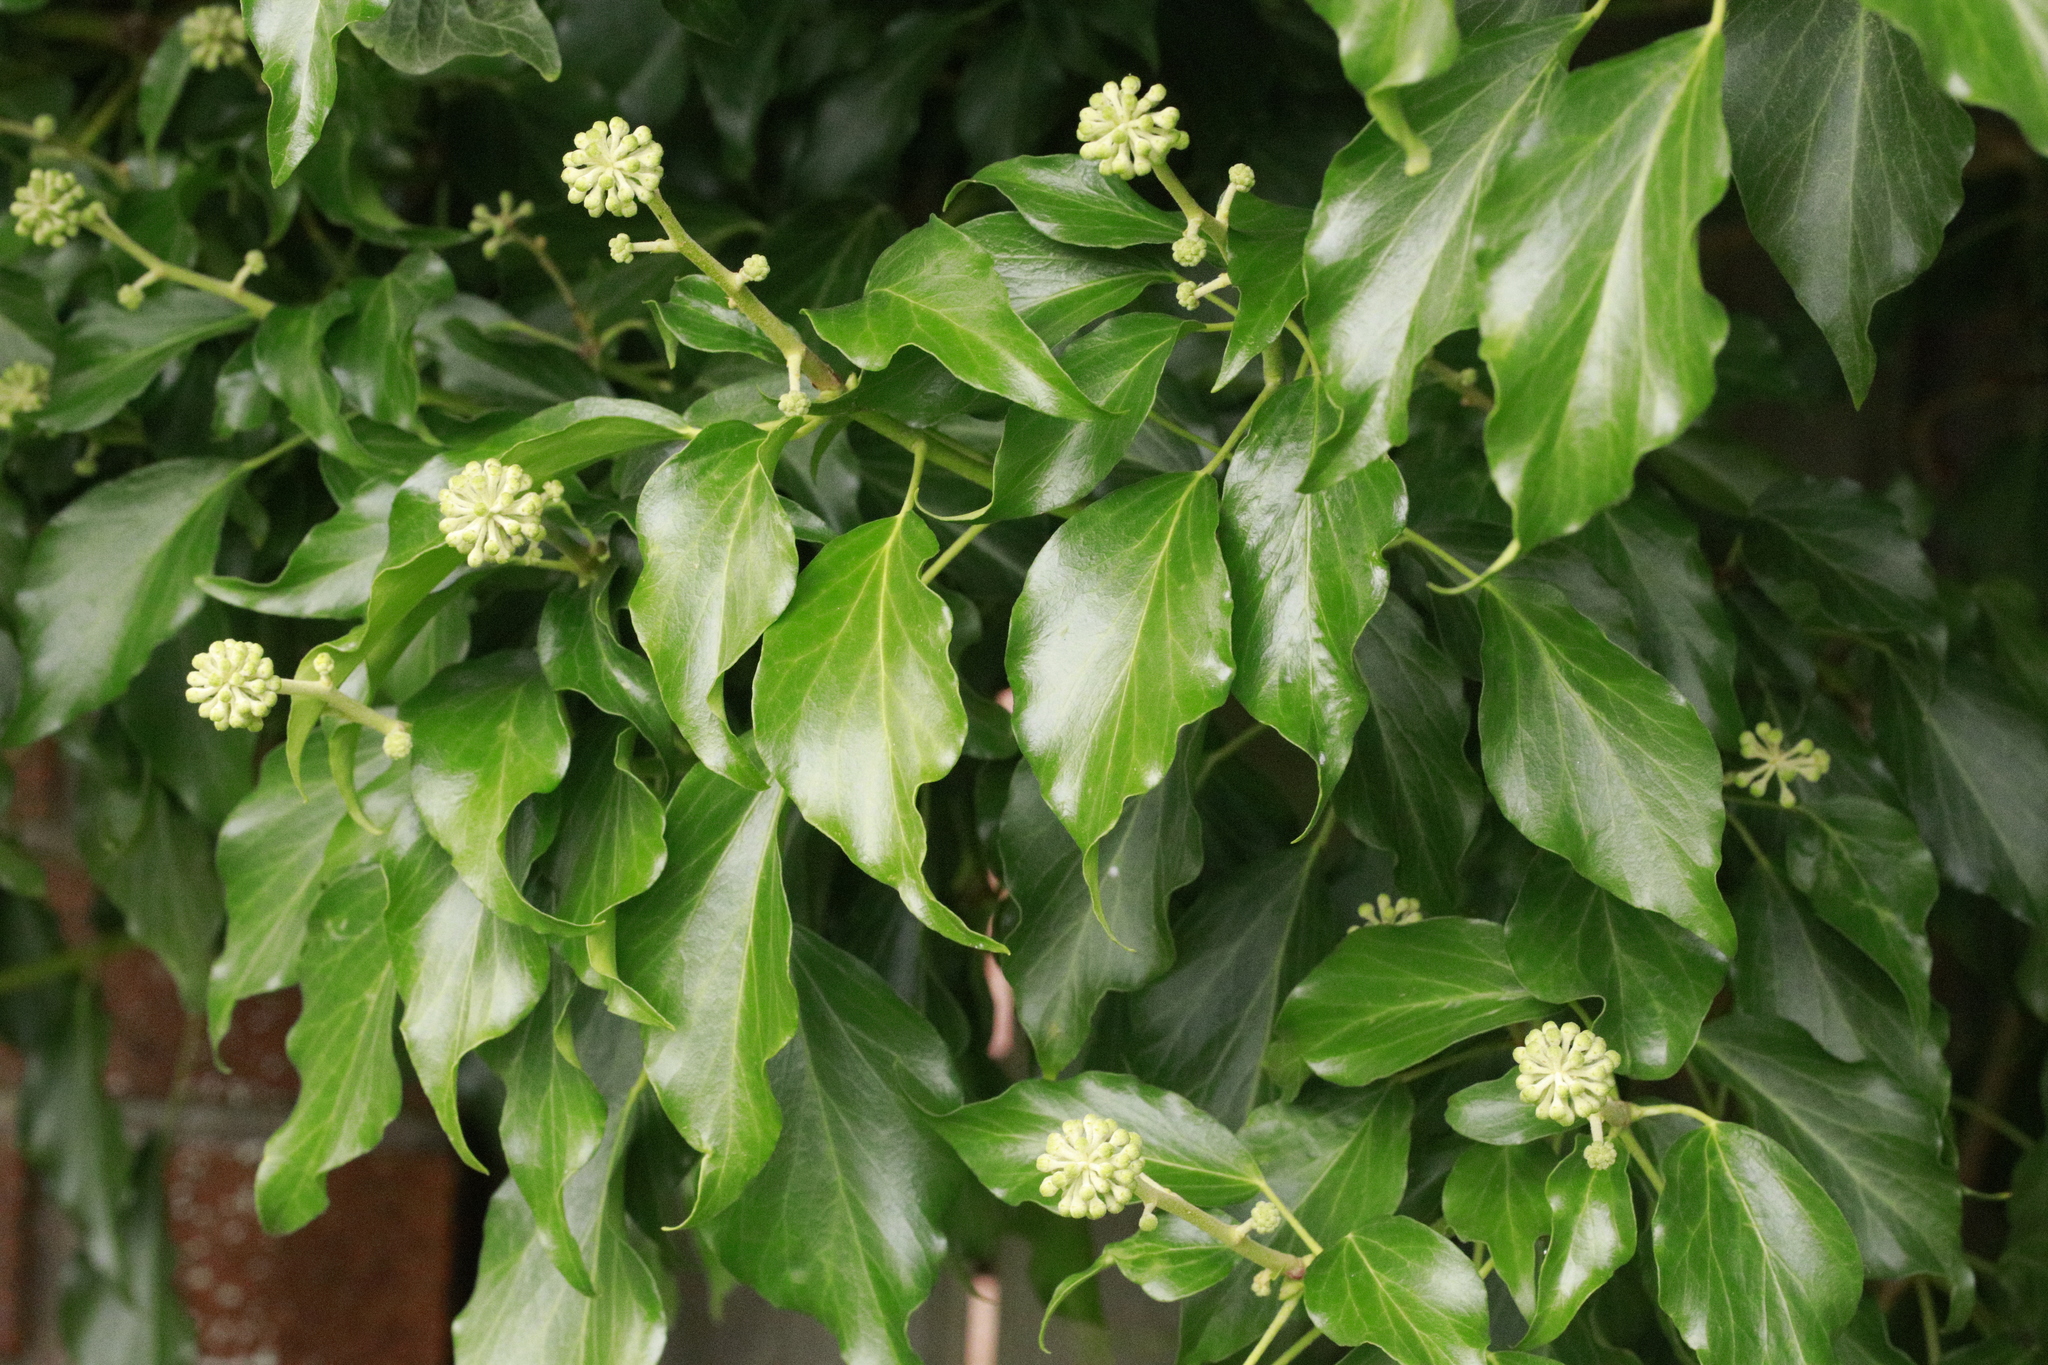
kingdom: Plantae
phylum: Tracheophyta
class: Magnoliopsida
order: Apiales
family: Araliaceae
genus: Hedera
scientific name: Hedera helix
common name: Ivy
